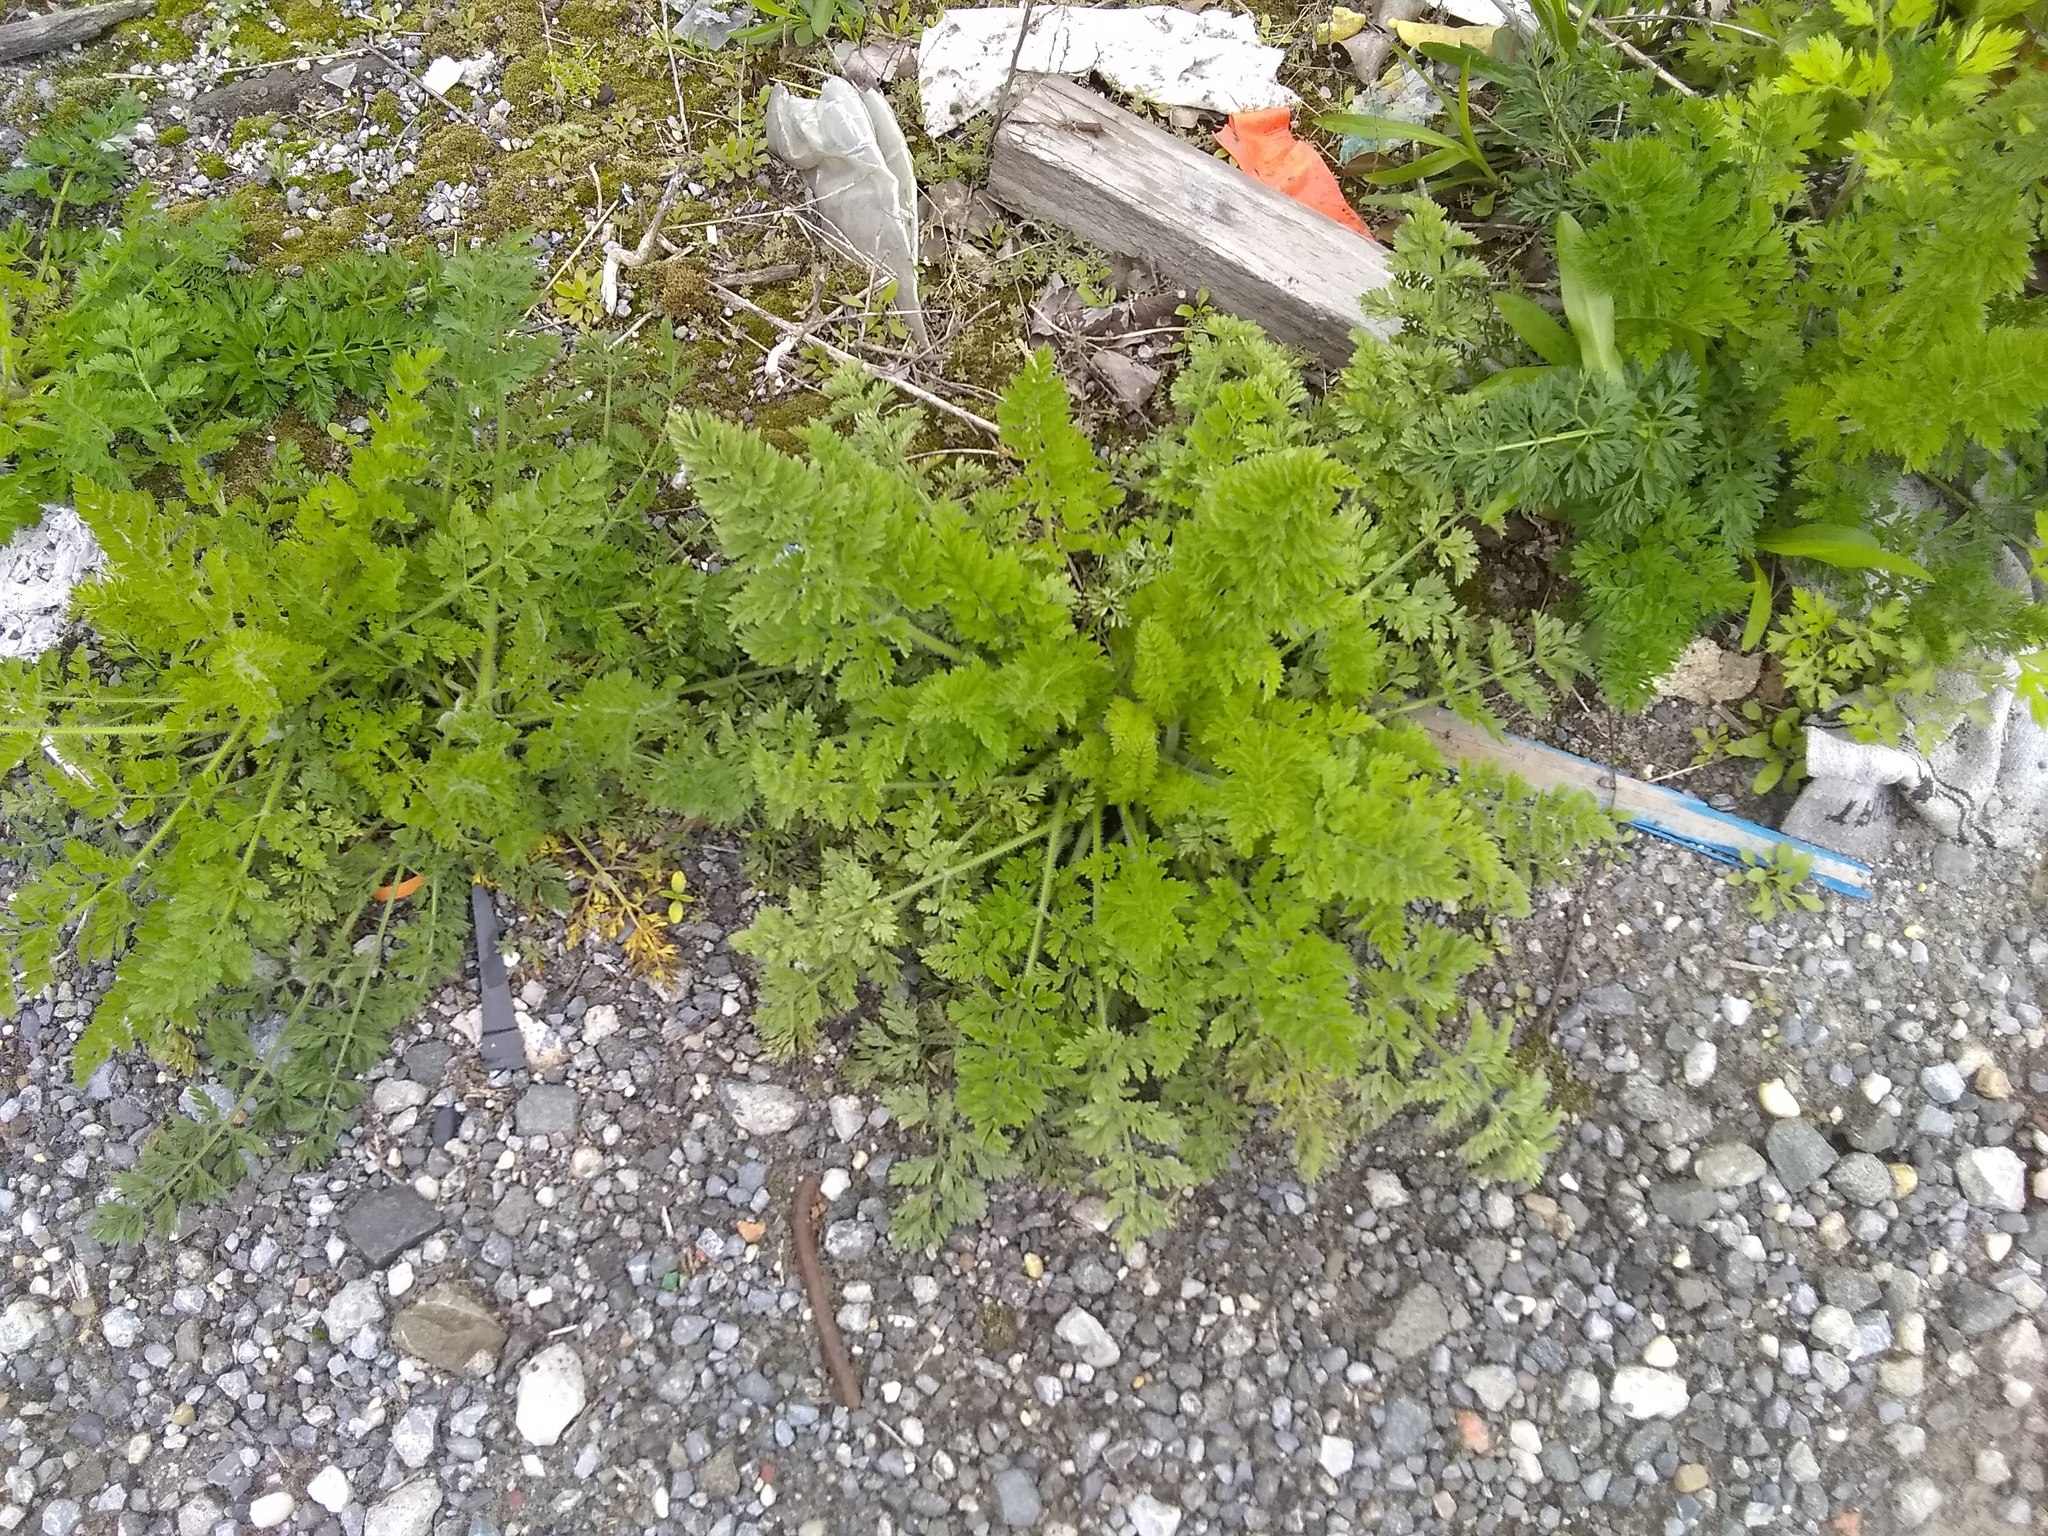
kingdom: Plantae
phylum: Tracheophyta
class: Magnoliopsida
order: Apiales
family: Apiaceae
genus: Daucus
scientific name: Daucus carota
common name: Wild carrot
